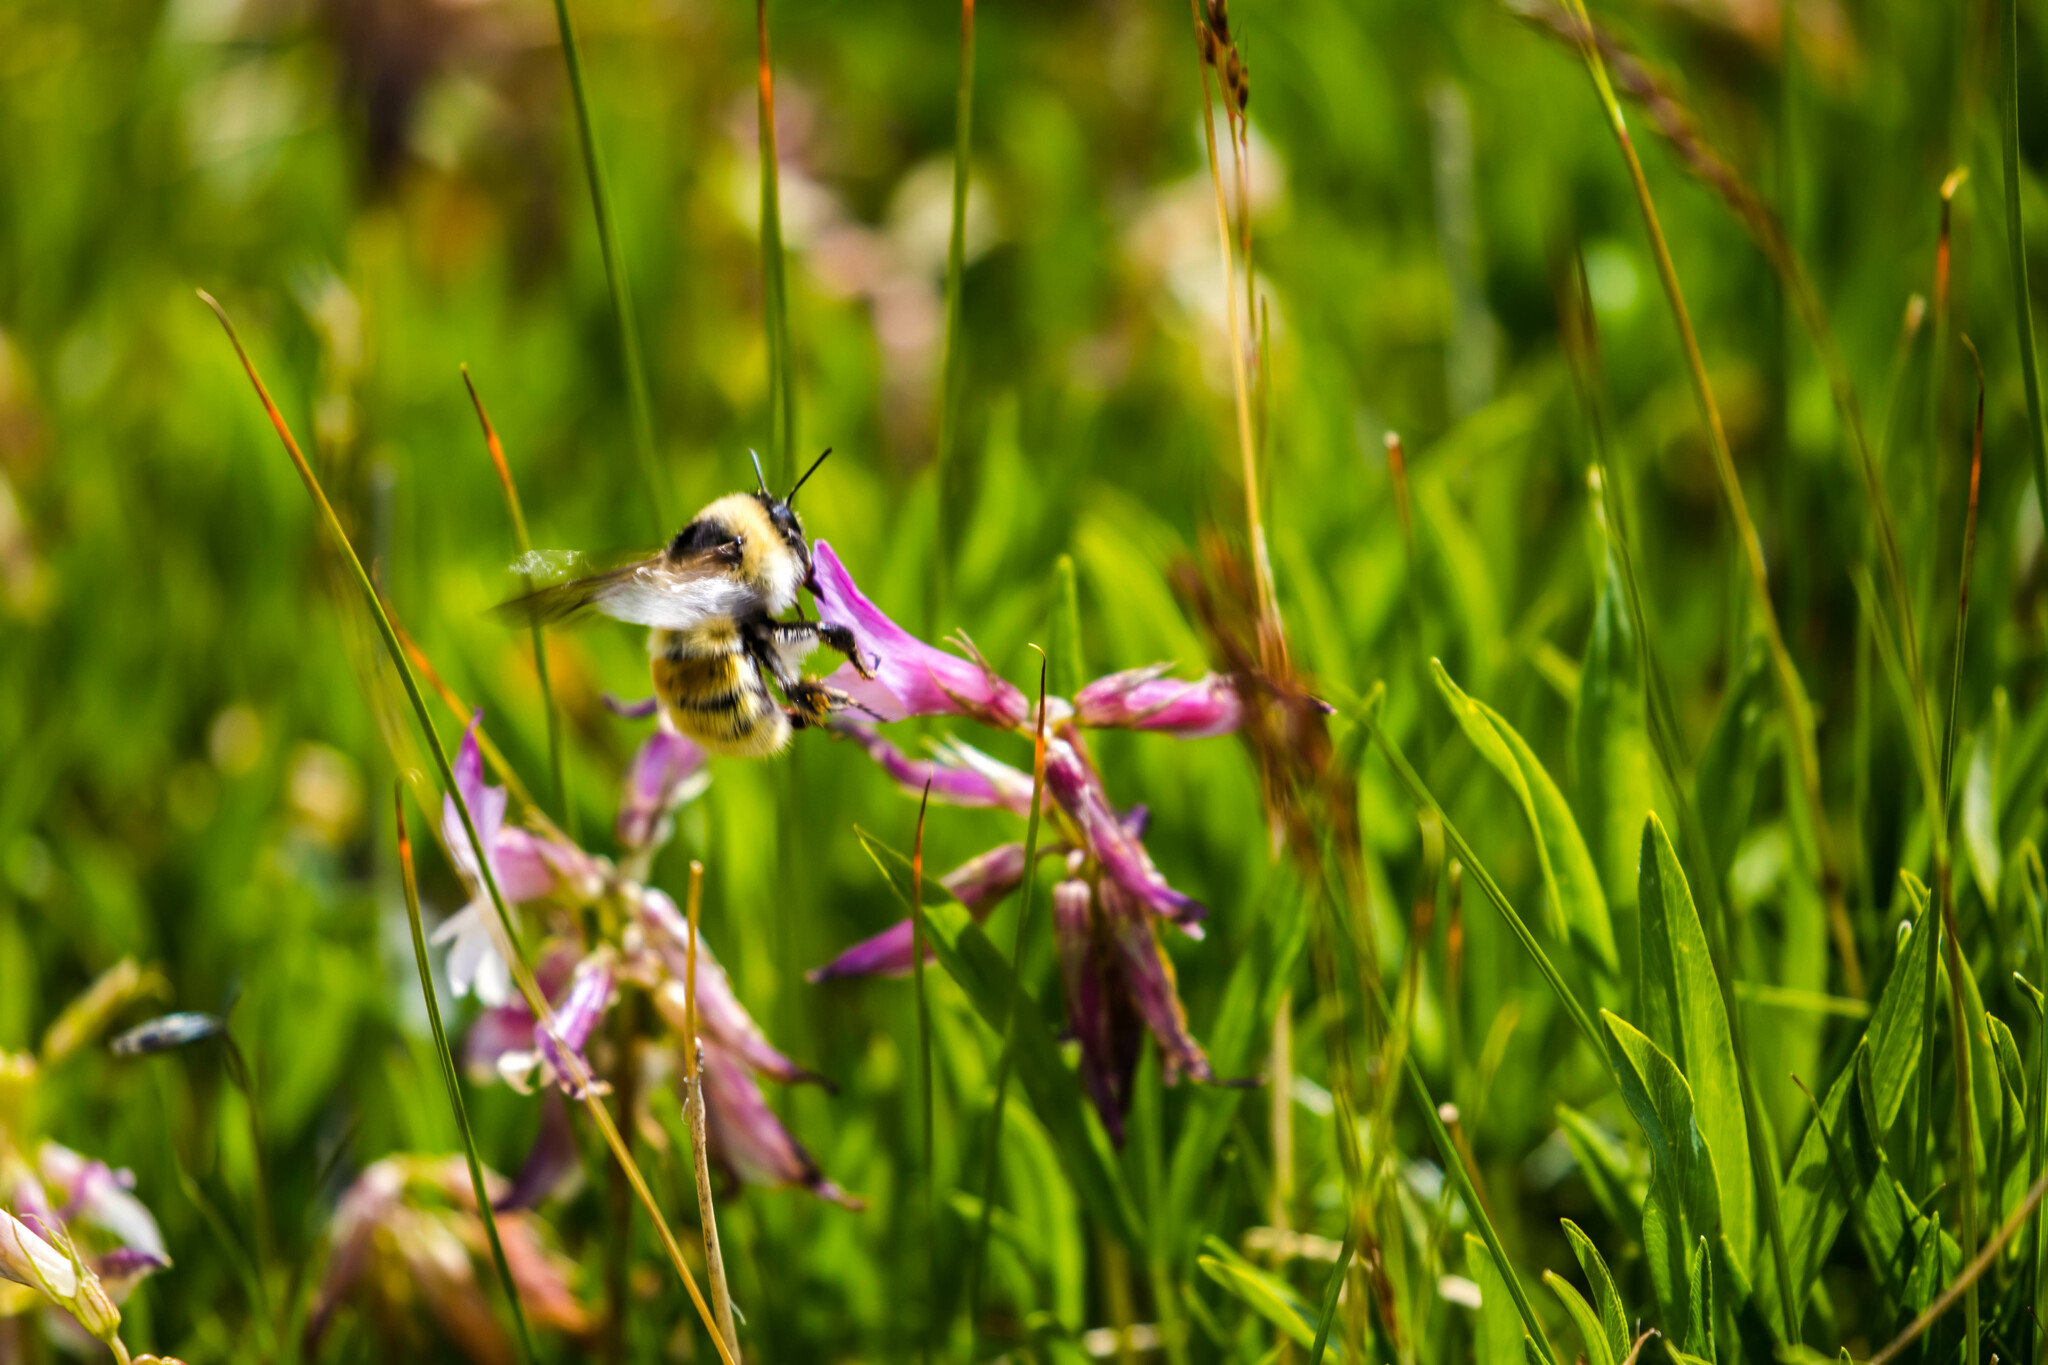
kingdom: Animalia
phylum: Arthropoda
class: Insecta
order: Hymenoptera
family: Apidae
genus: Bombus
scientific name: Bombus mucidus
